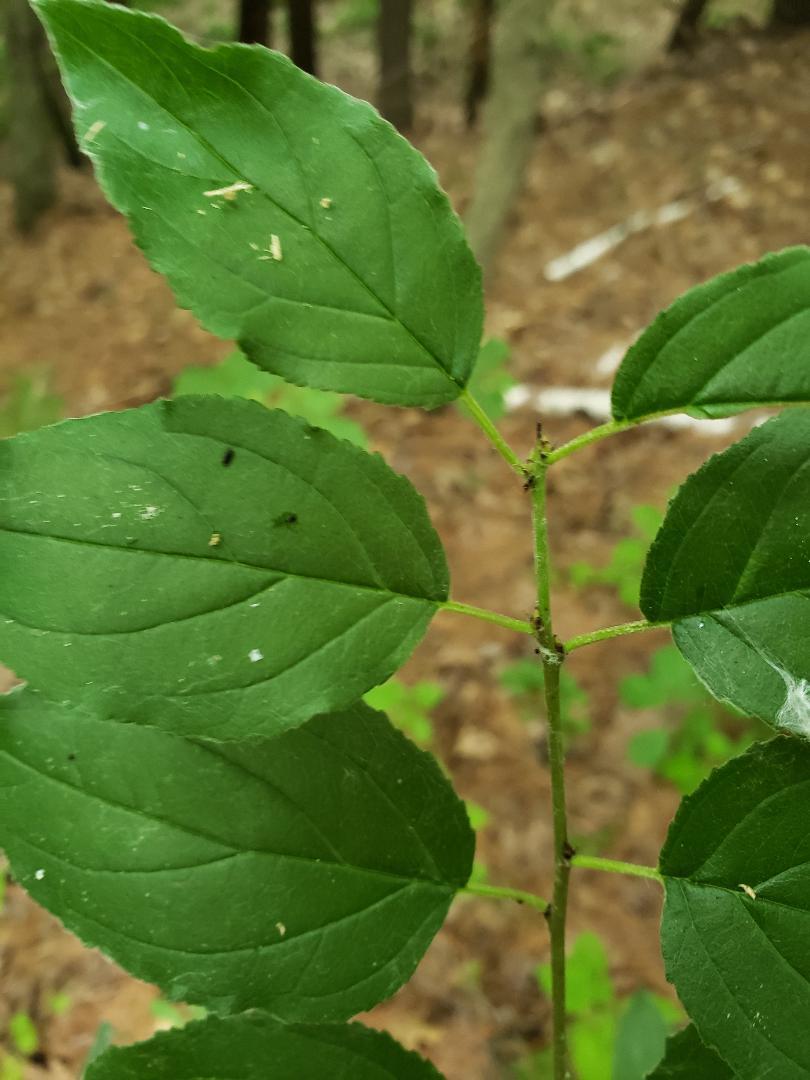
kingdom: Plantae
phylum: Tracheophyta
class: Magnoliopsida
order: Rosales
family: Rhamnaceae
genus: Rhamnus
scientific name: Rhamnus cathartica
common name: Common buckthorn
